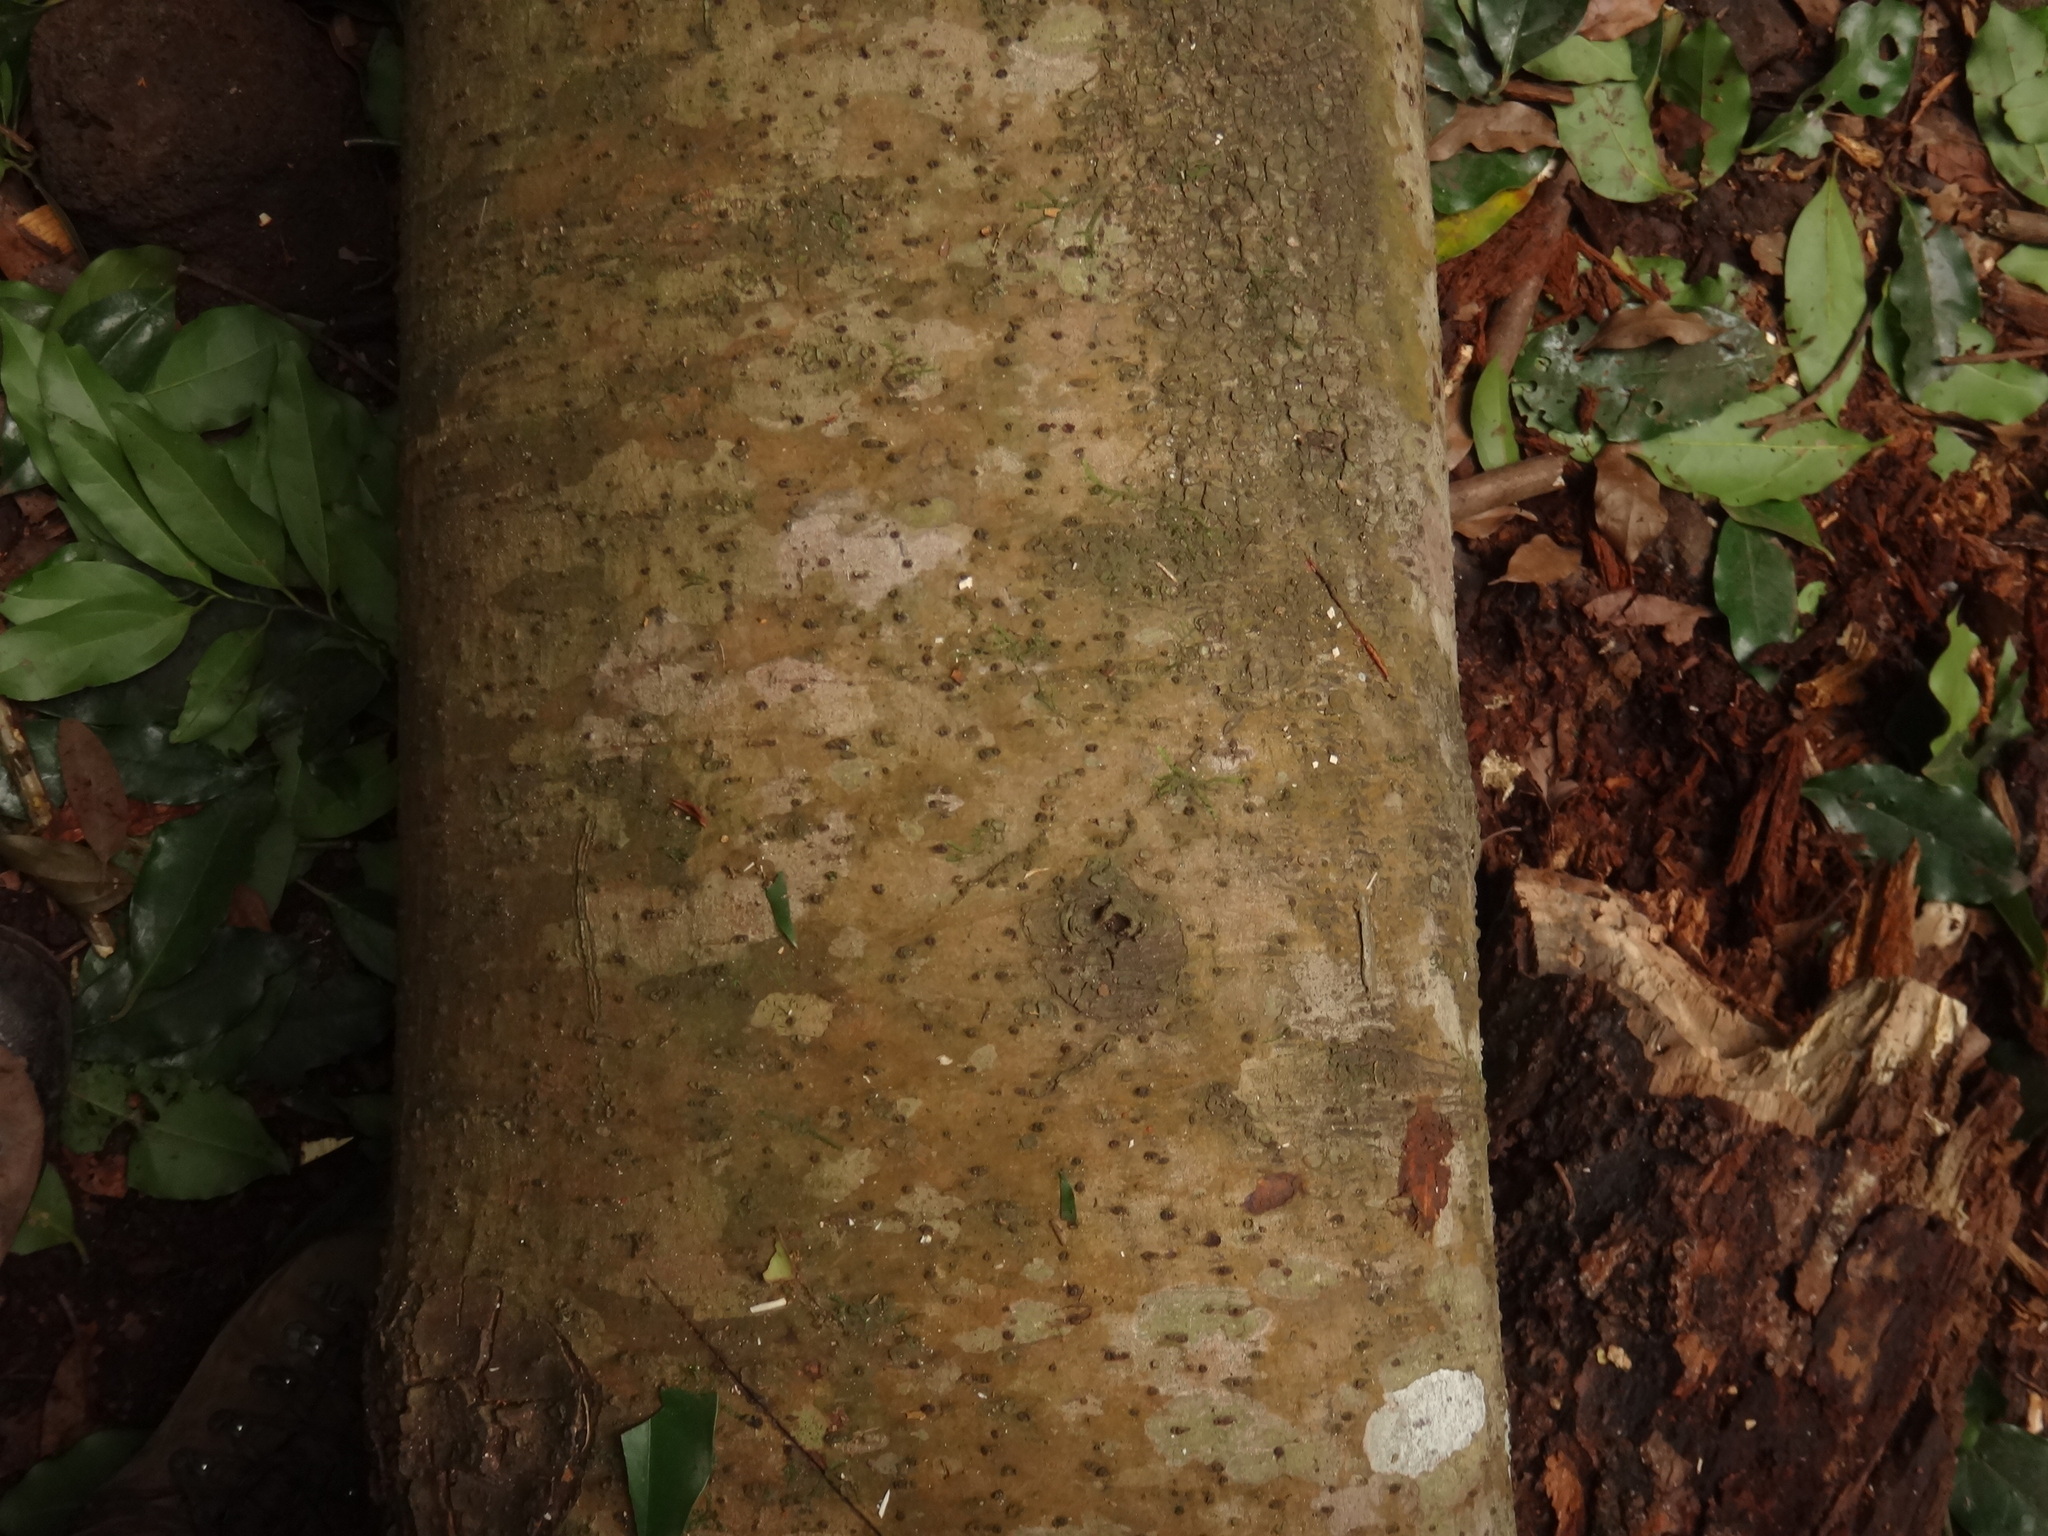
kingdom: Plantae
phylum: Tracheophyta
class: Magnoliopsida
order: Laurales
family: Lauraceae
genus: Mespilodaphne
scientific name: Mespilodaphne foetens
